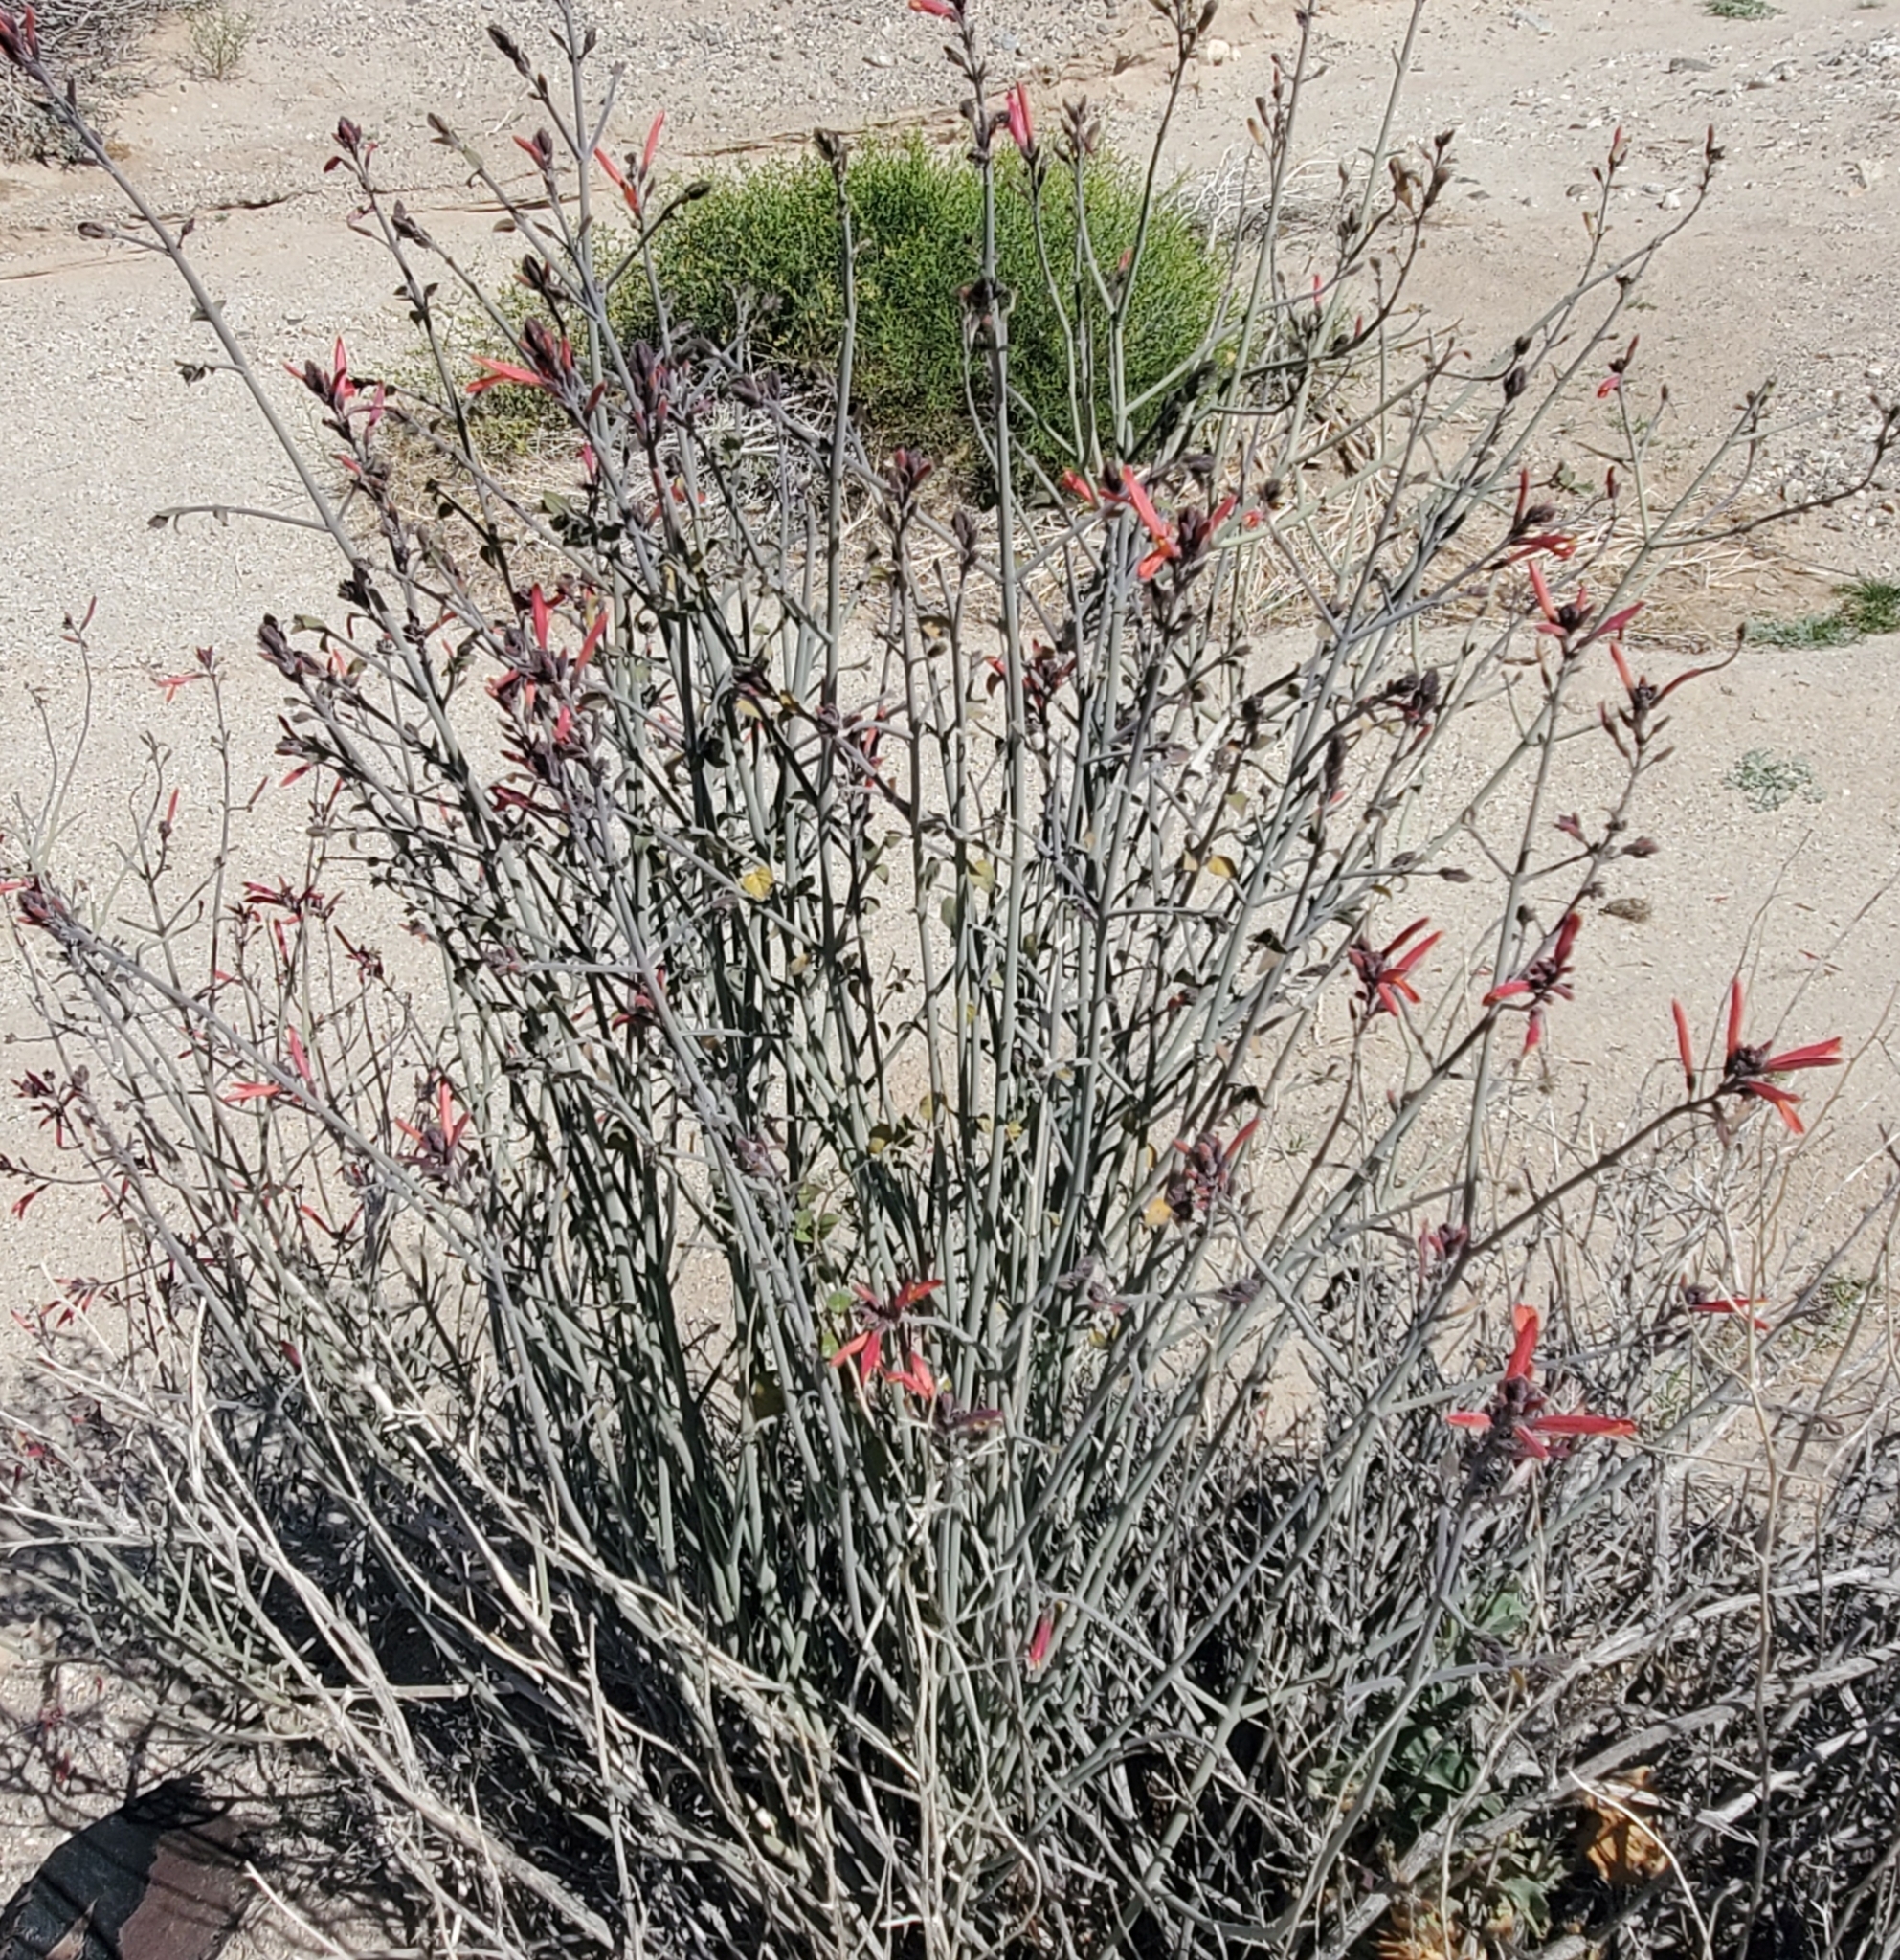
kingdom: Plantae
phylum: Tracheophyta
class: Magnoliopsida
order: Lamiales
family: Acanthaceae
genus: Justicia
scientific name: Justicia californica
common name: Chuparosa-honeysuckle
